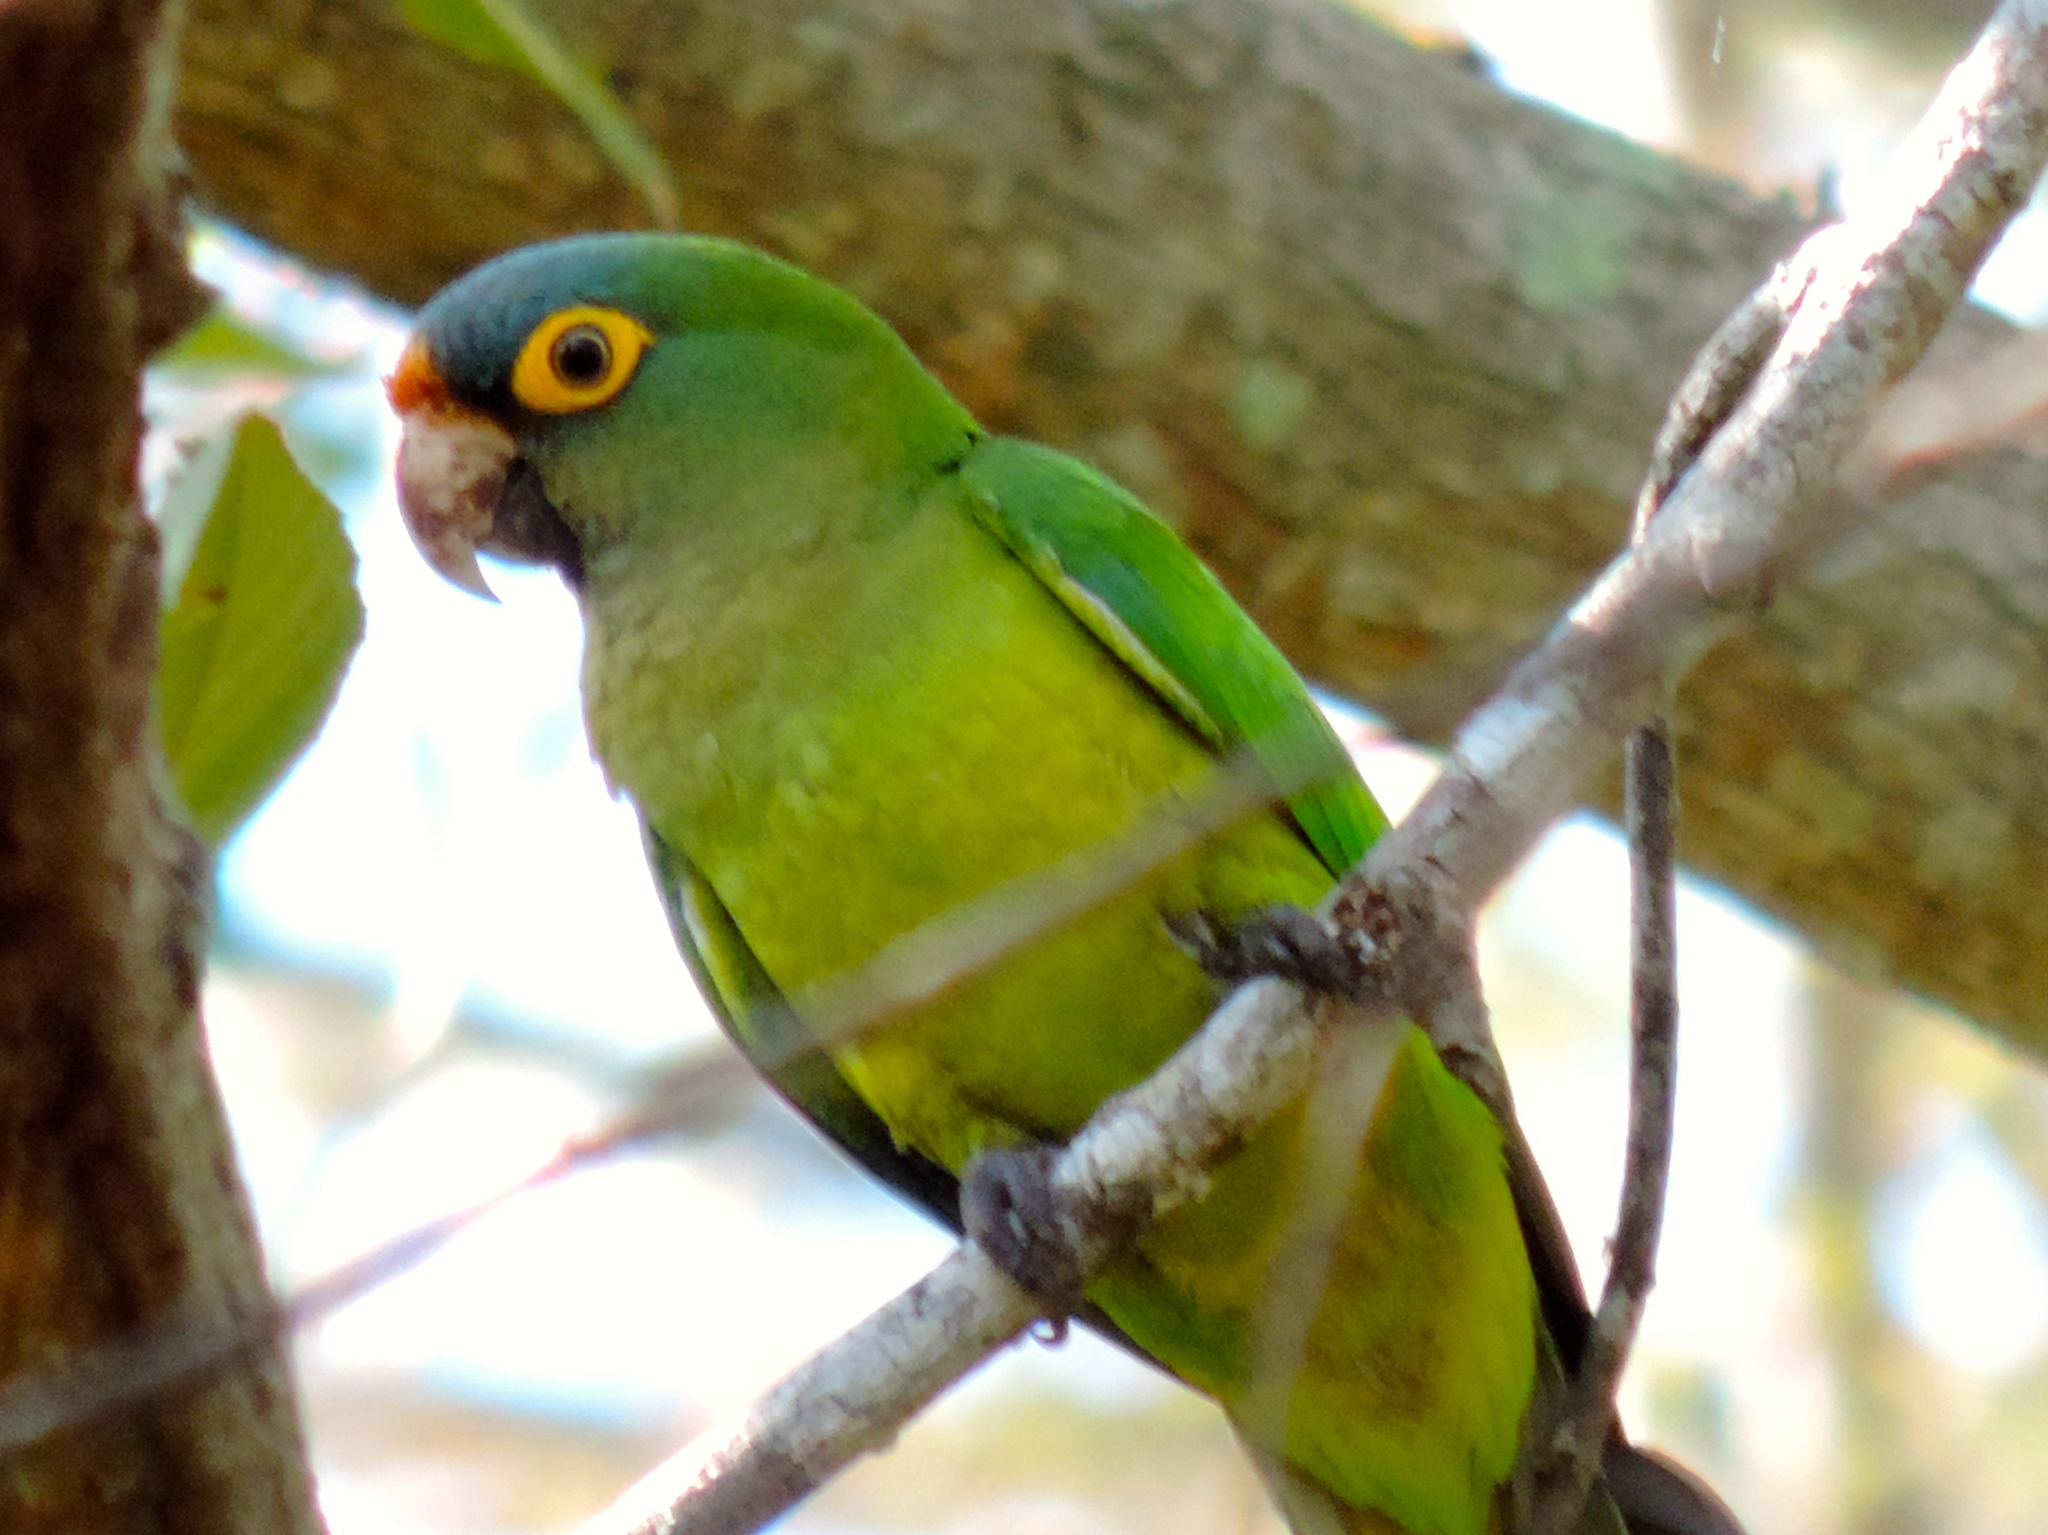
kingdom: Animalia
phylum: Chordata
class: Aves
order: Psittaciformes
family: Psittacidae
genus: Aratinga
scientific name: Aratinga canicularis
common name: Orange-fronted parakeet
